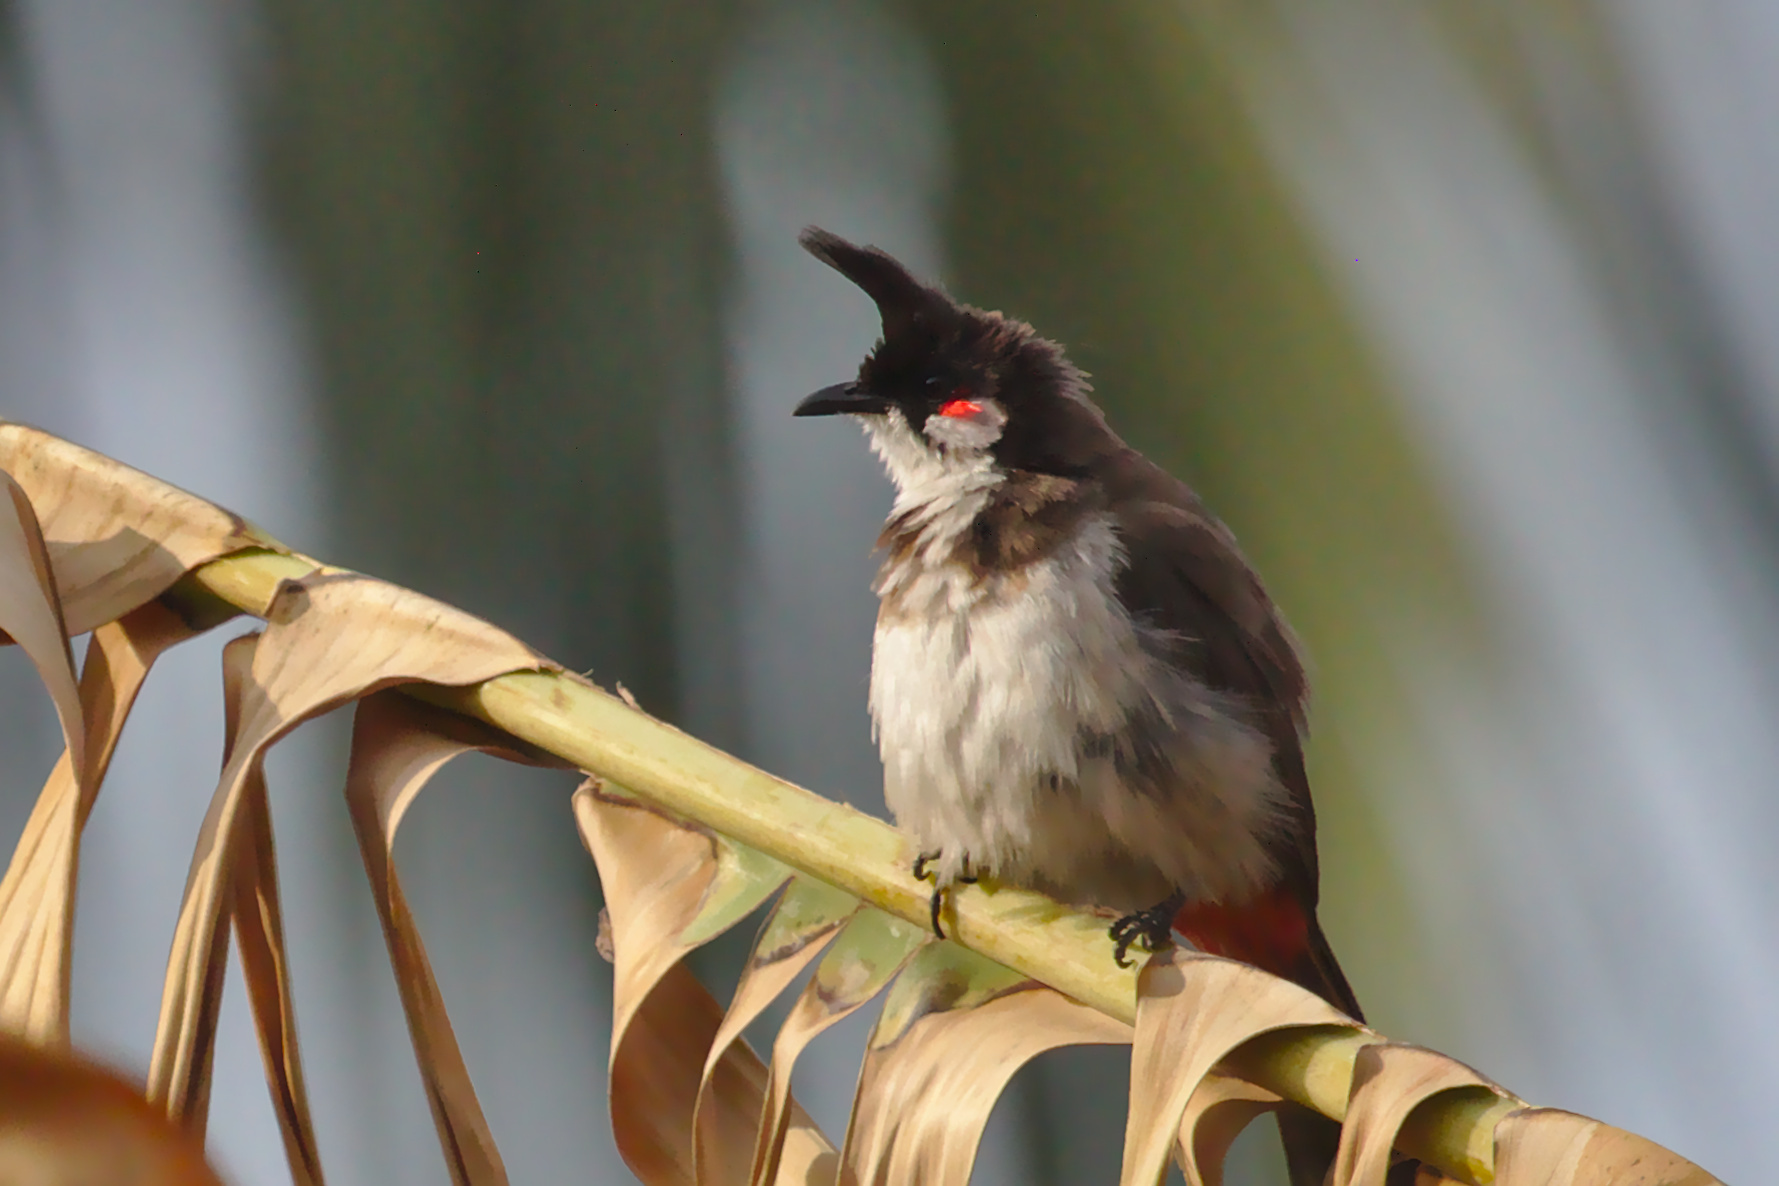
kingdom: Animalia
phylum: Chordata
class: Aves
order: Passeriformes
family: Pycnonotidae
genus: Pycnonotus
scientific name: Pycnonotus jocosus
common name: Red-whiskered bulbul
